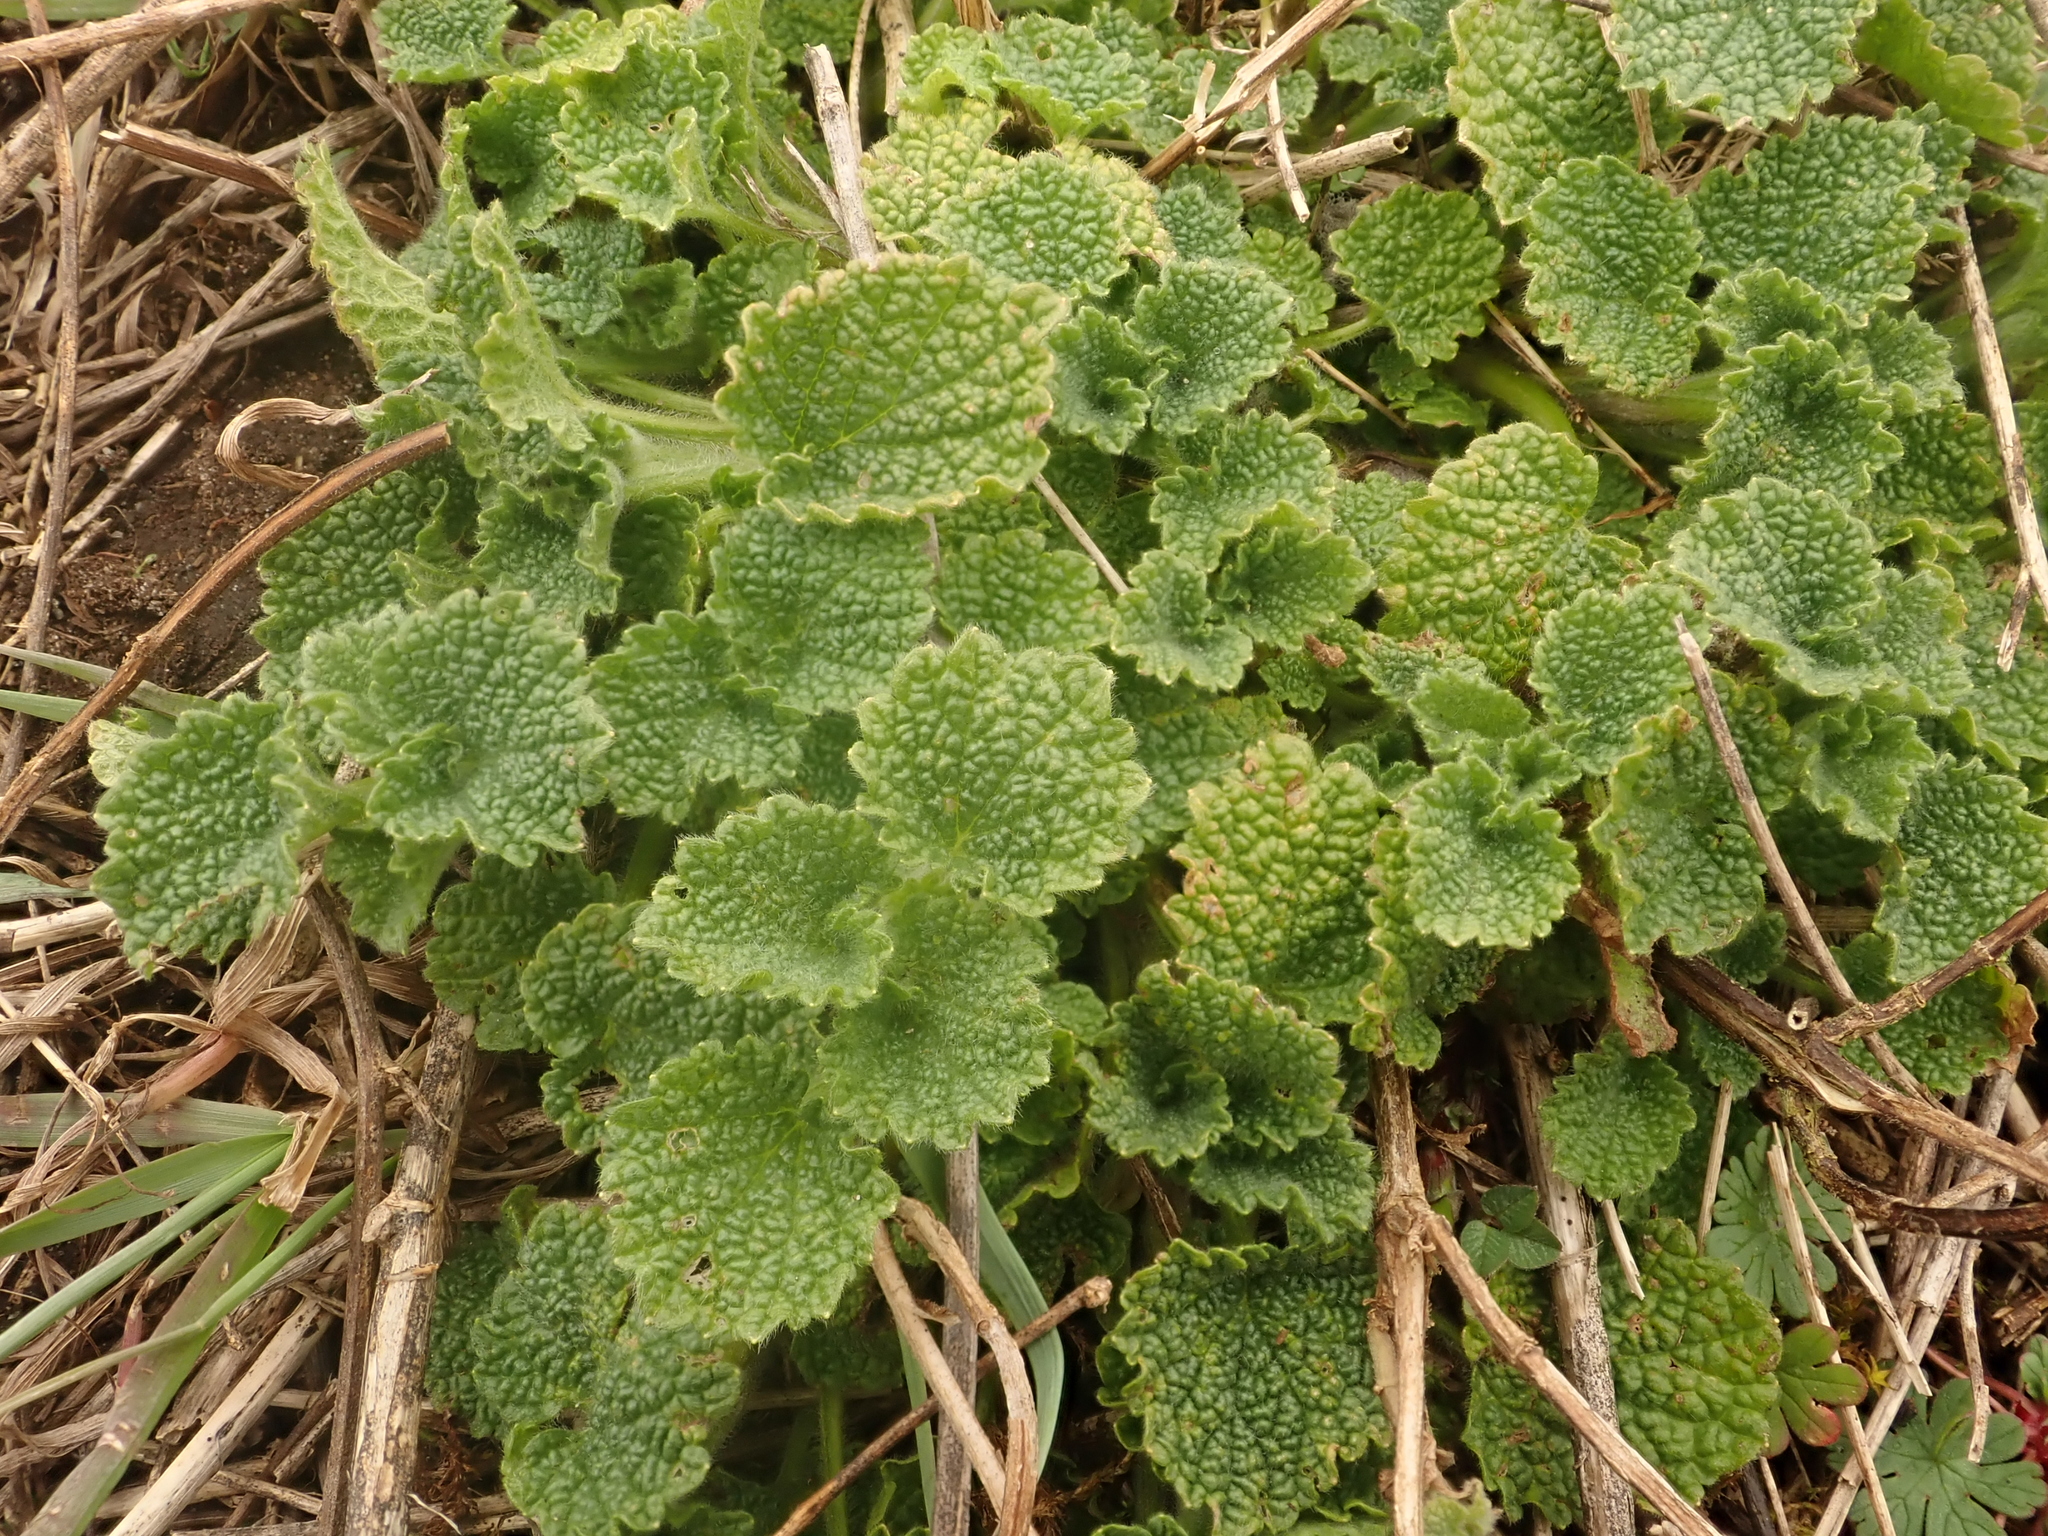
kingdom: Plantae
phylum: Tracheophyta
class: Magnoliopsida
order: Lamiales
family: Lamiaceae
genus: Ballota
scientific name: Ballota nigra
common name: Black horehound
